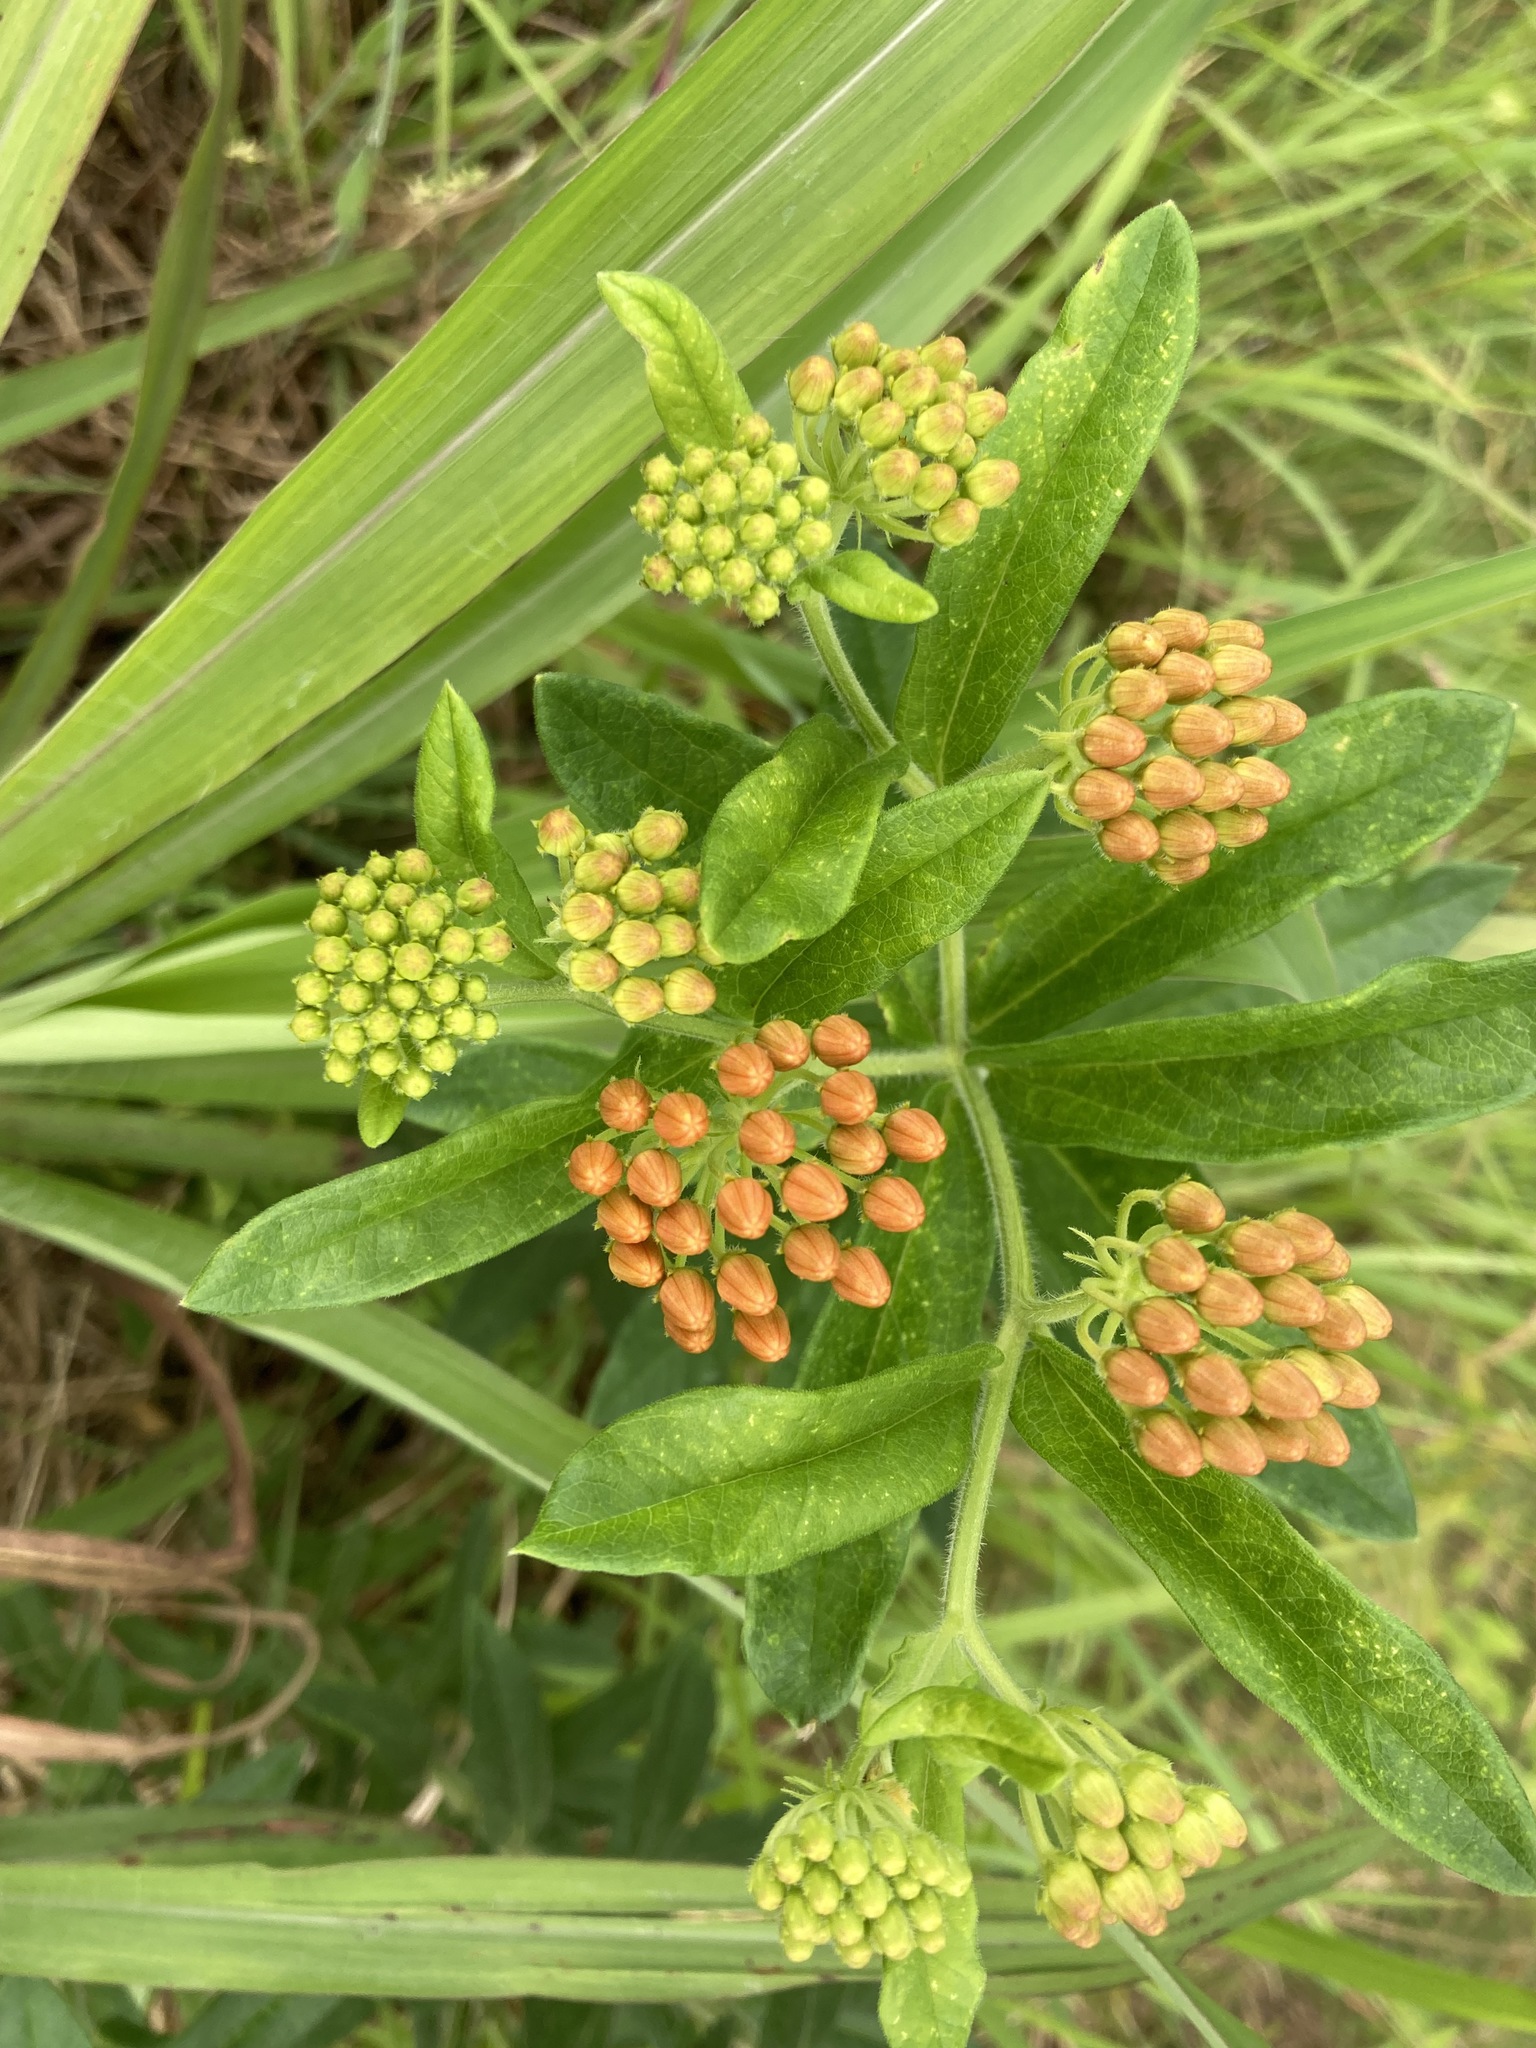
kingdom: Plantae
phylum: Tracheophyta
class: Magnoliopsida
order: Gentianales
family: Apocynaceae
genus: Asclepias
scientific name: Asclepias tuberosa
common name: Butterfly milkweed
